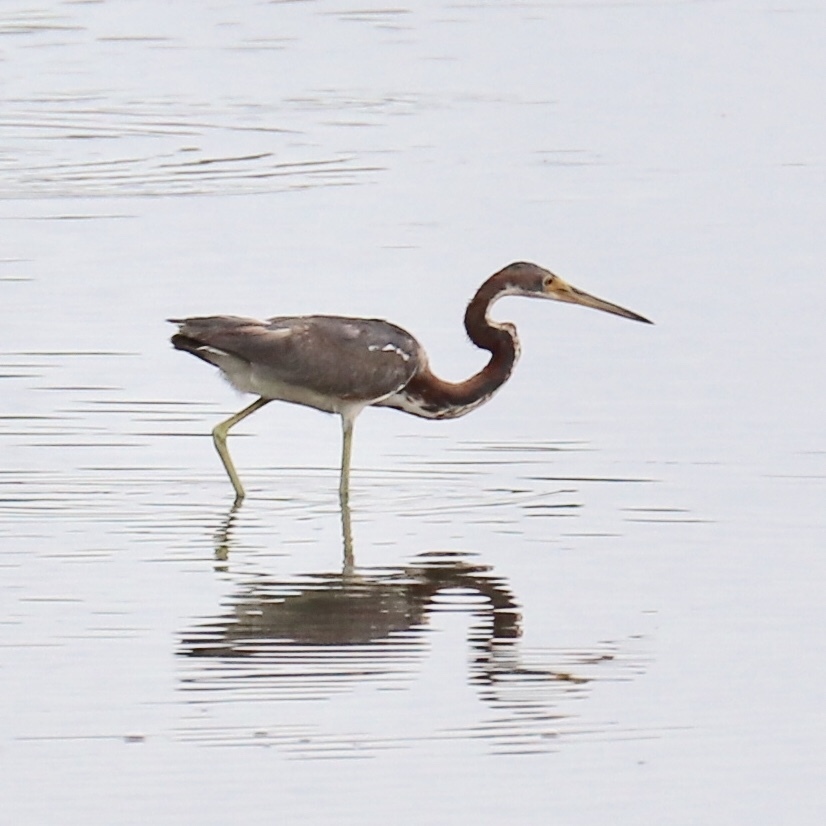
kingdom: Animalia
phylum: Chordata
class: Aves
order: Pelecaniformes
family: Ardeidae
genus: Egretta
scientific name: Egretta tricolor
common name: Tricolored heron
